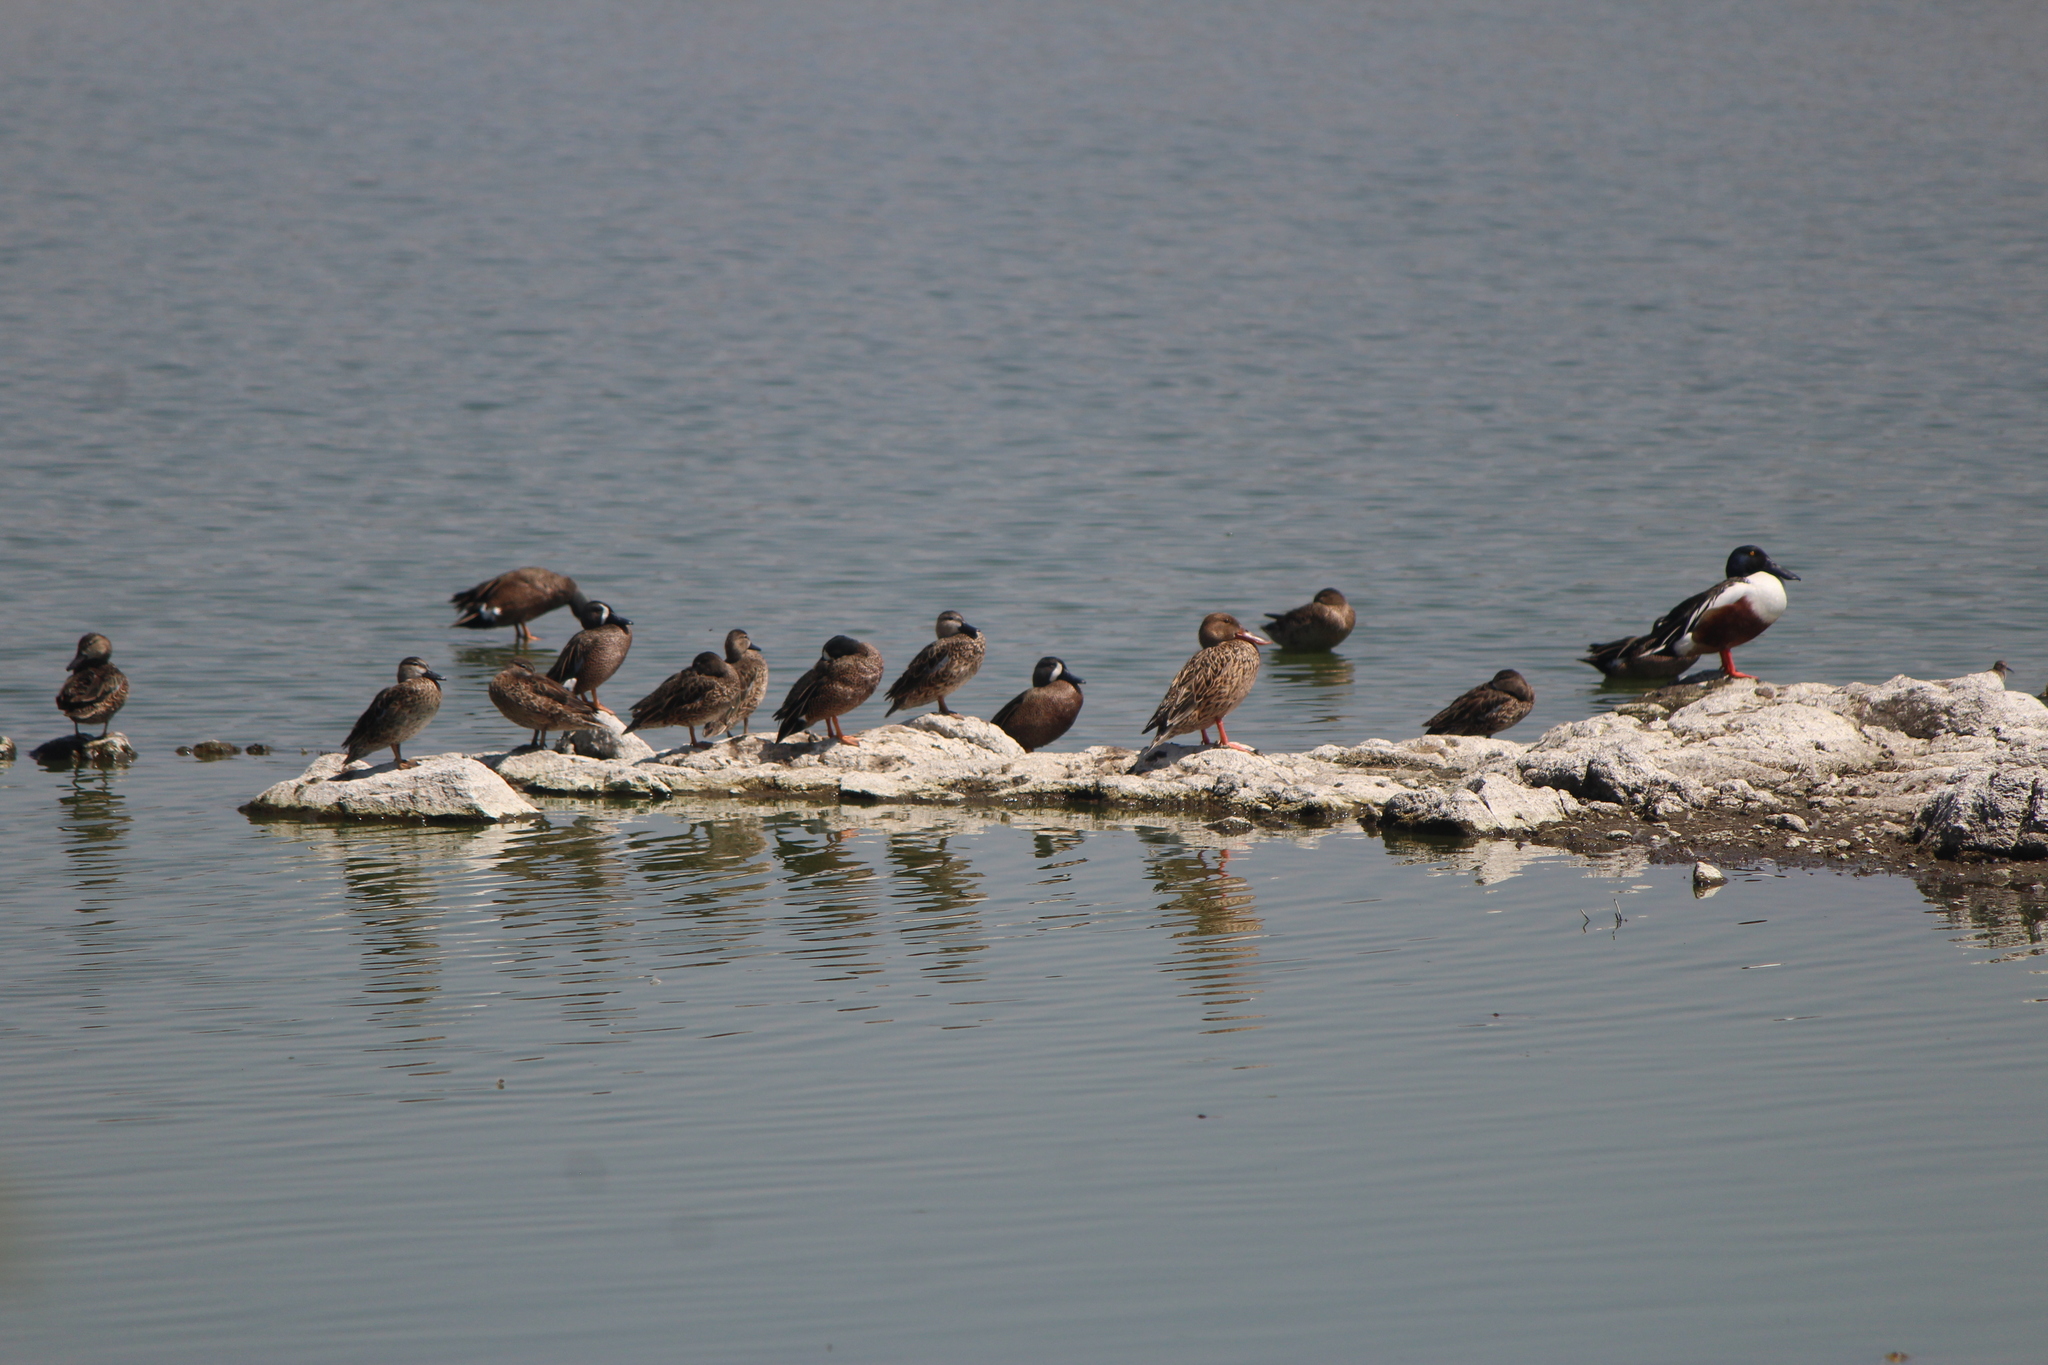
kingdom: Animalia
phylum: Chordata
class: Aves
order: Anseriformes
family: Anatidae
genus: Spatula
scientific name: Spatula discors
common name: Blue-winged teal
